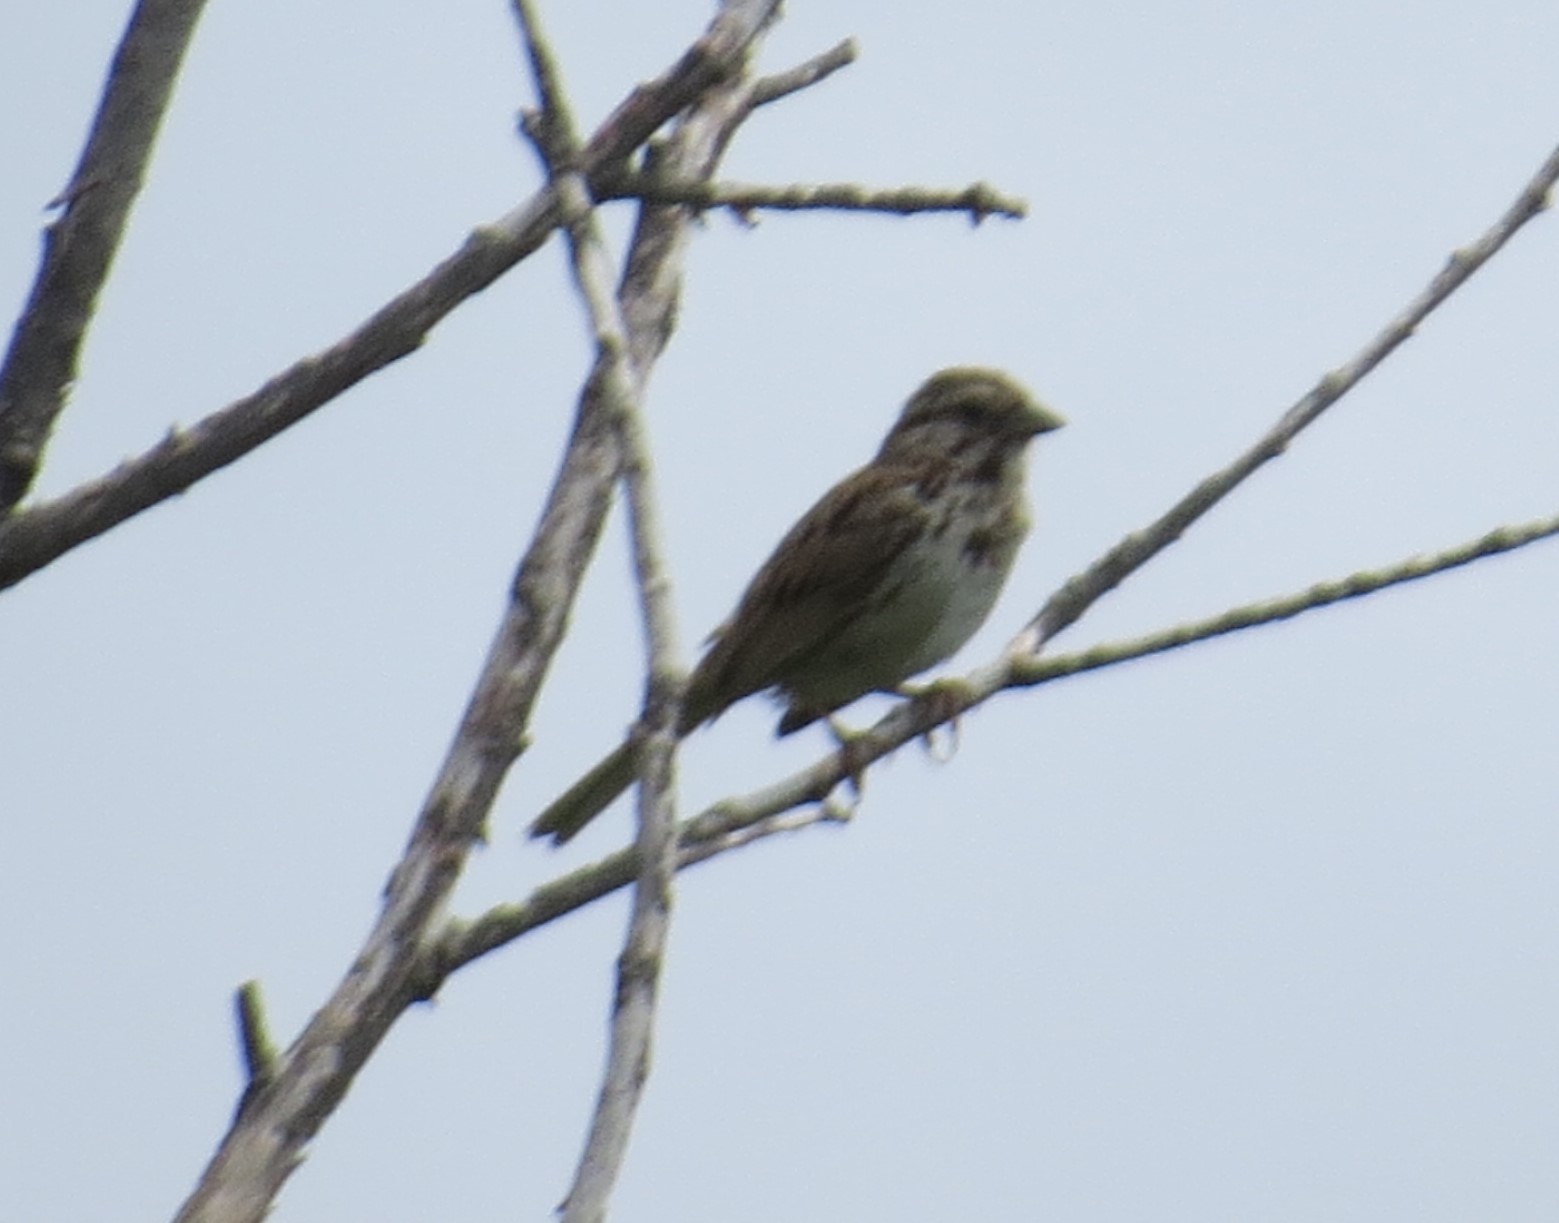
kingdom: Animalia
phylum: Chordata
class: Aves
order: Passeriformes
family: Passerellidae
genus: Melospiza
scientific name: Melospiza melodia
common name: Song sparrow
